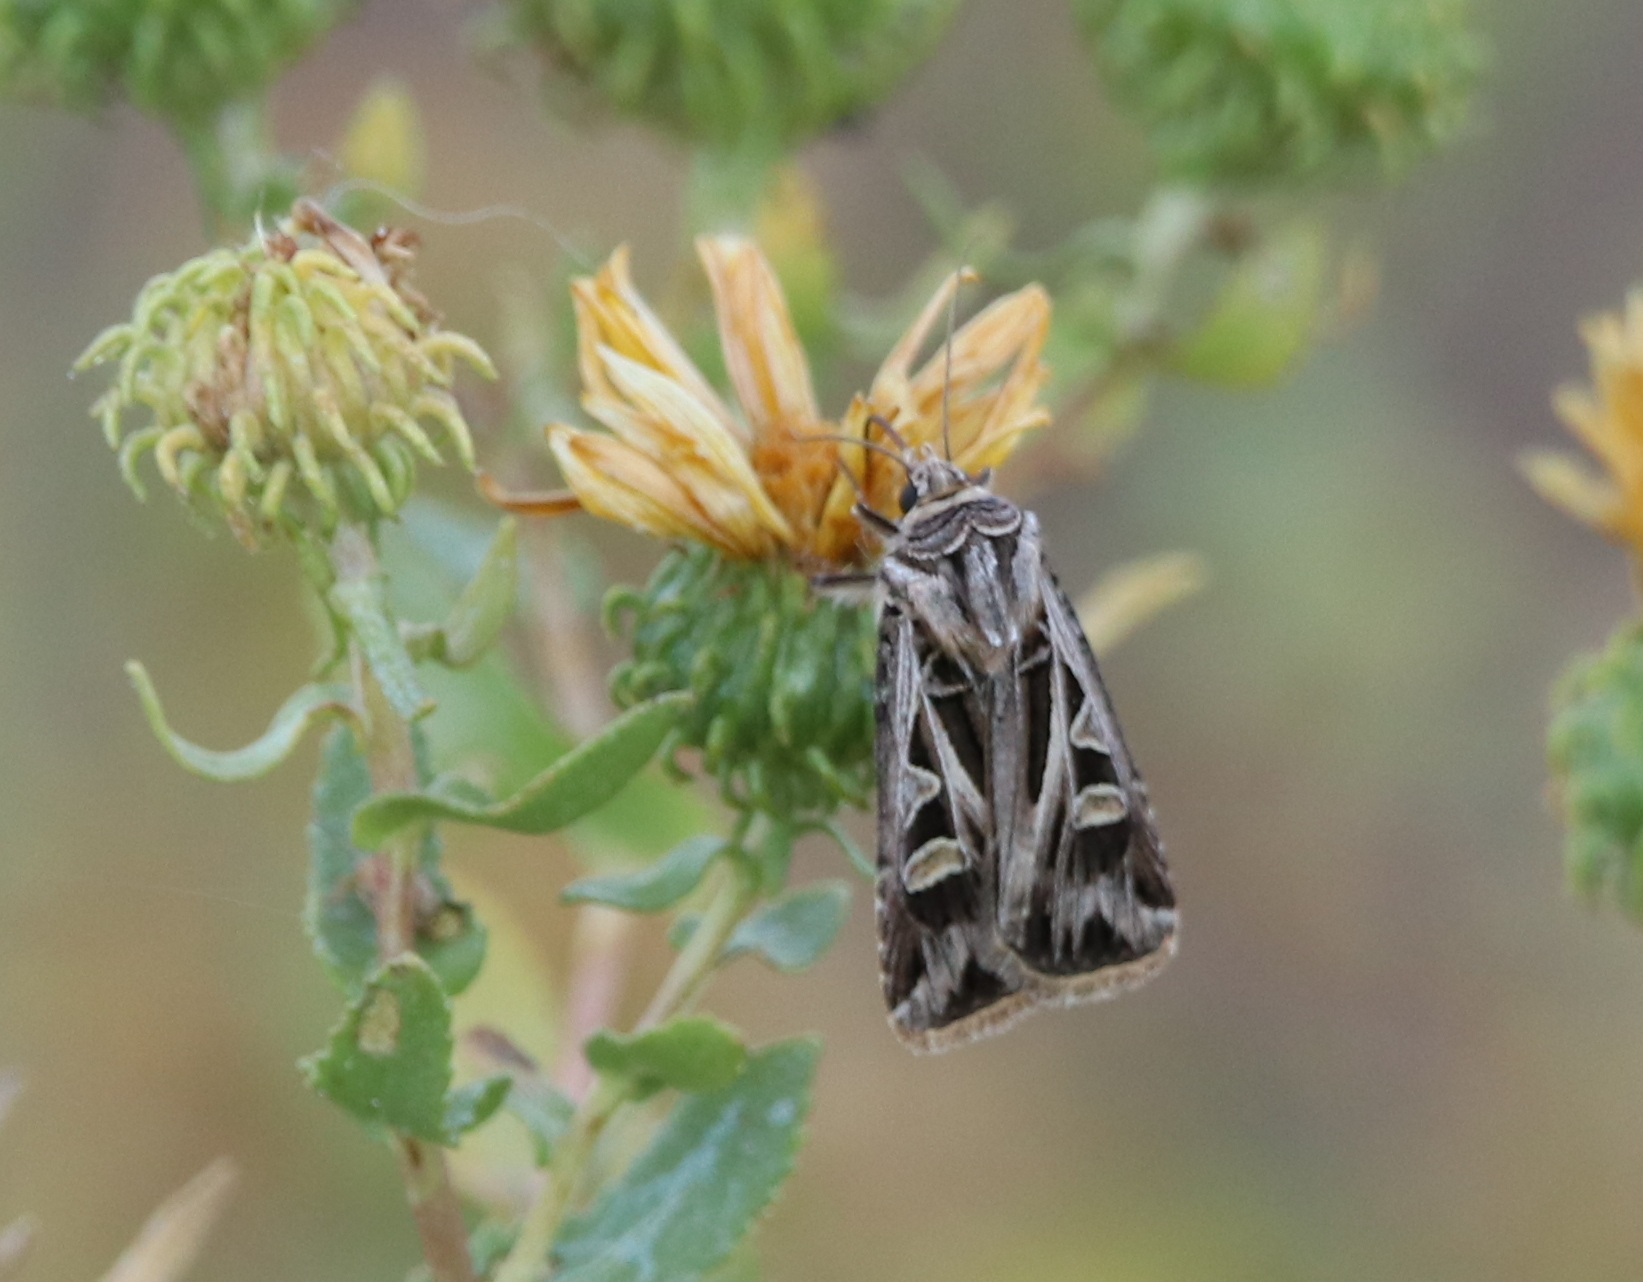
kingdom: Animalia
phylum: Arthropoda
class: Insecta
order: Lepidoptera
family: Noctuidae
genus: Feltia
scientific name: Feltia jaculifera
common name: Dingy cutworm moth
